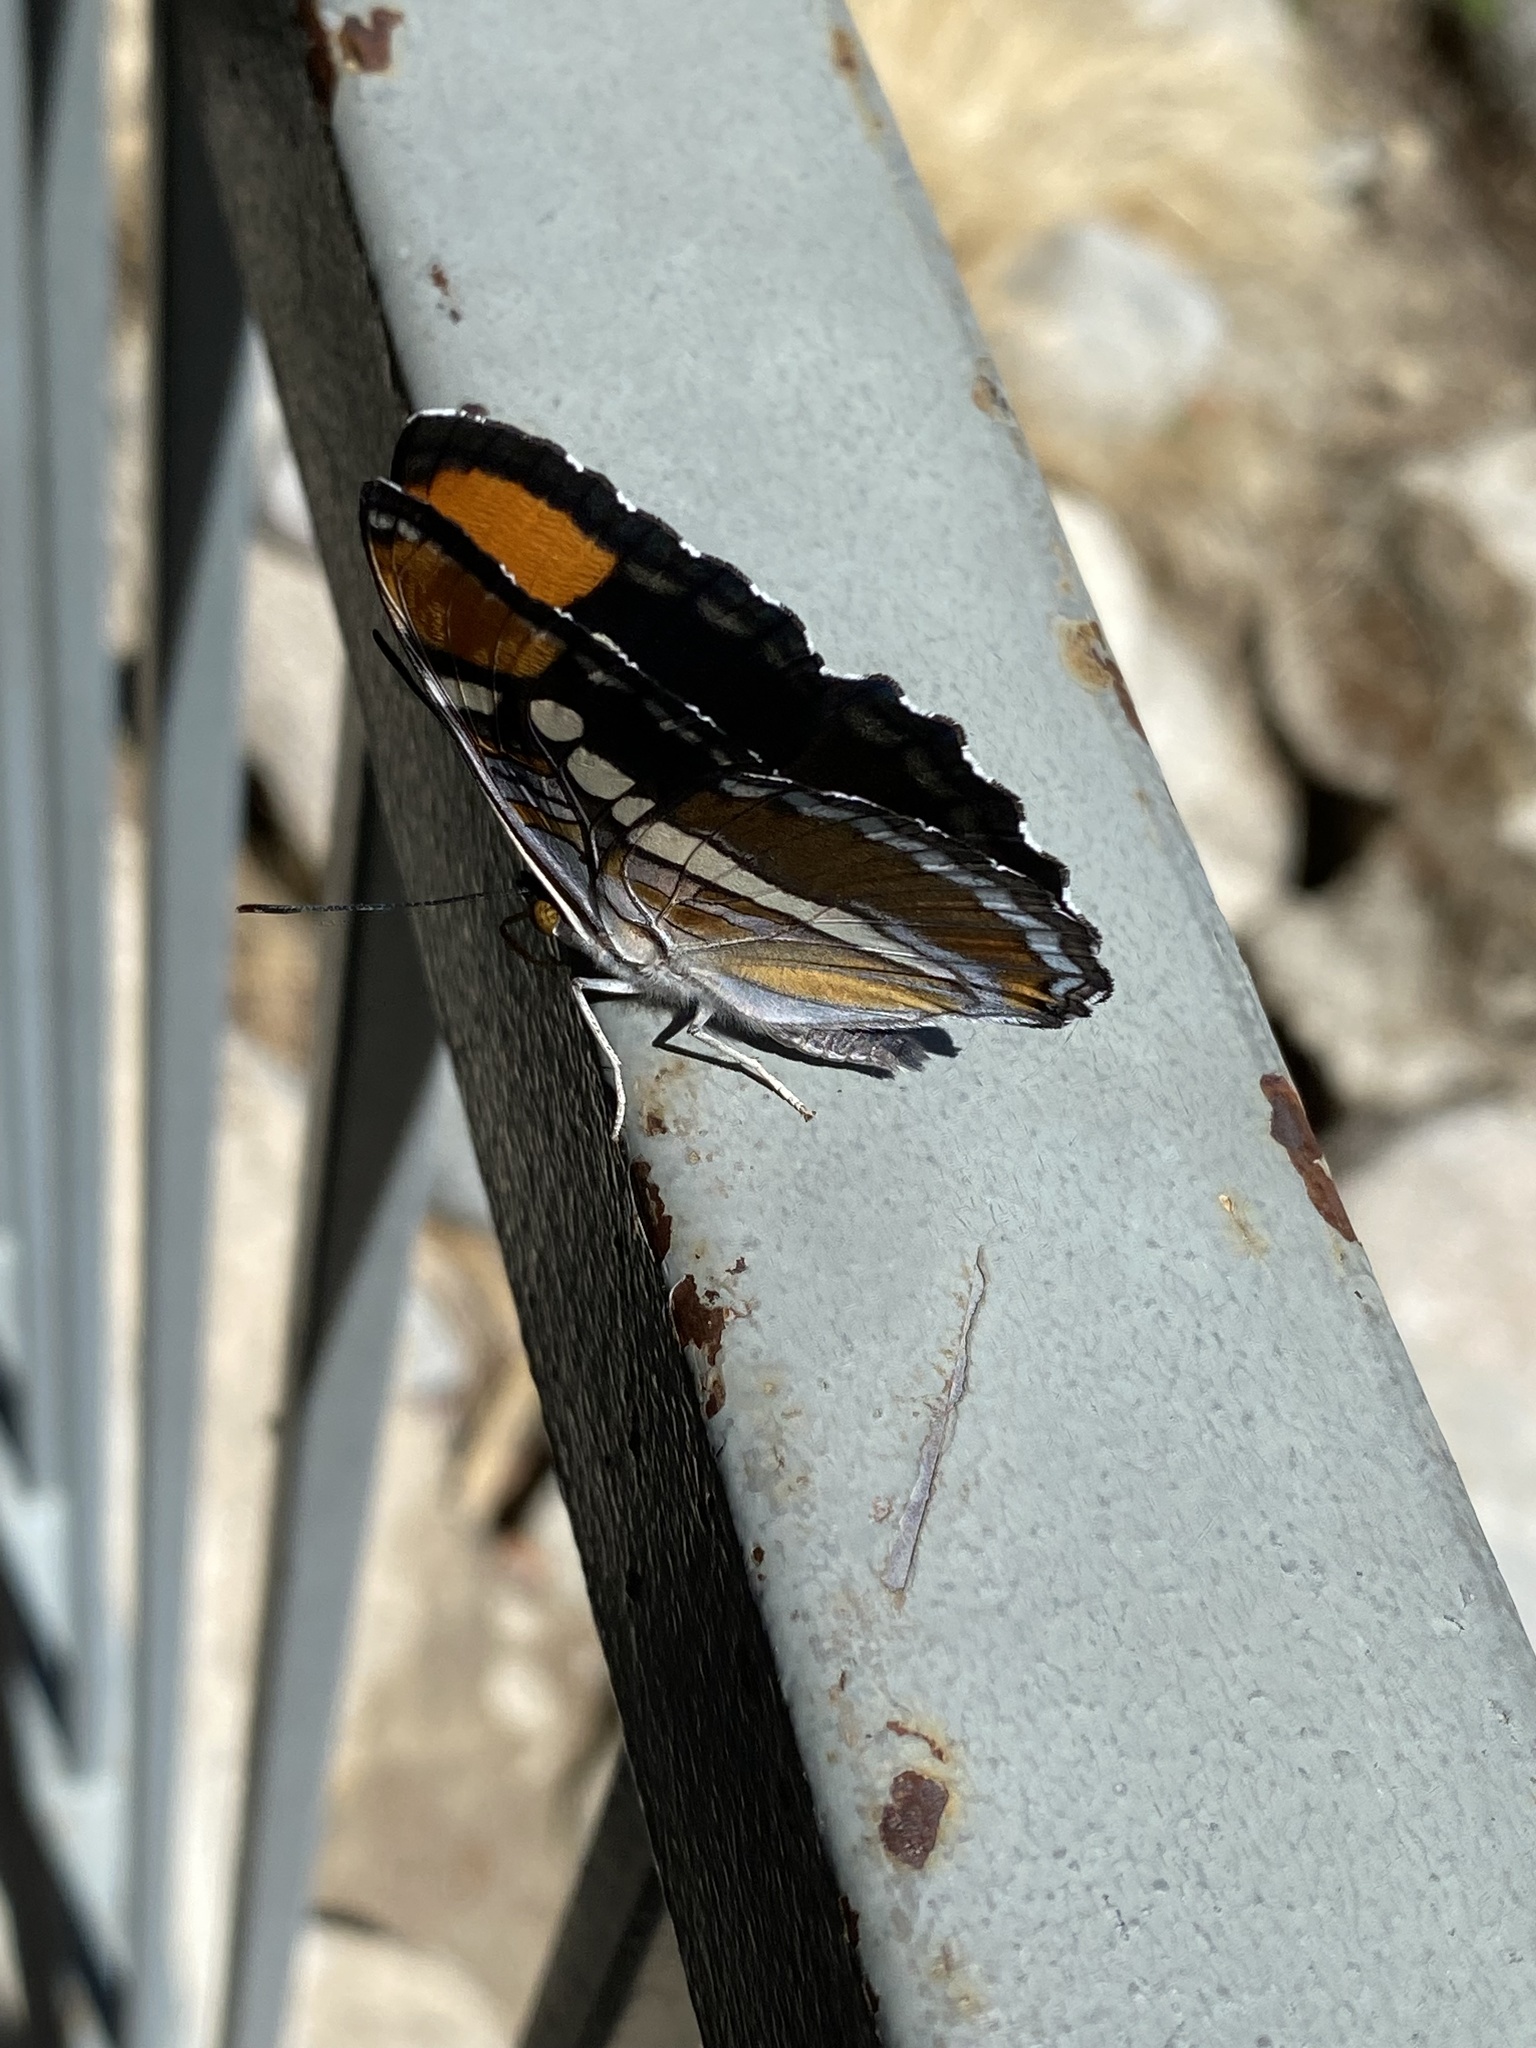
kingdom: Animalia
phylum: Arthropoda
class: Insecta
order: Lepidoptera
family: Nymphalidae
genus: Limenitis
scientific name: Limenitis bredowii
